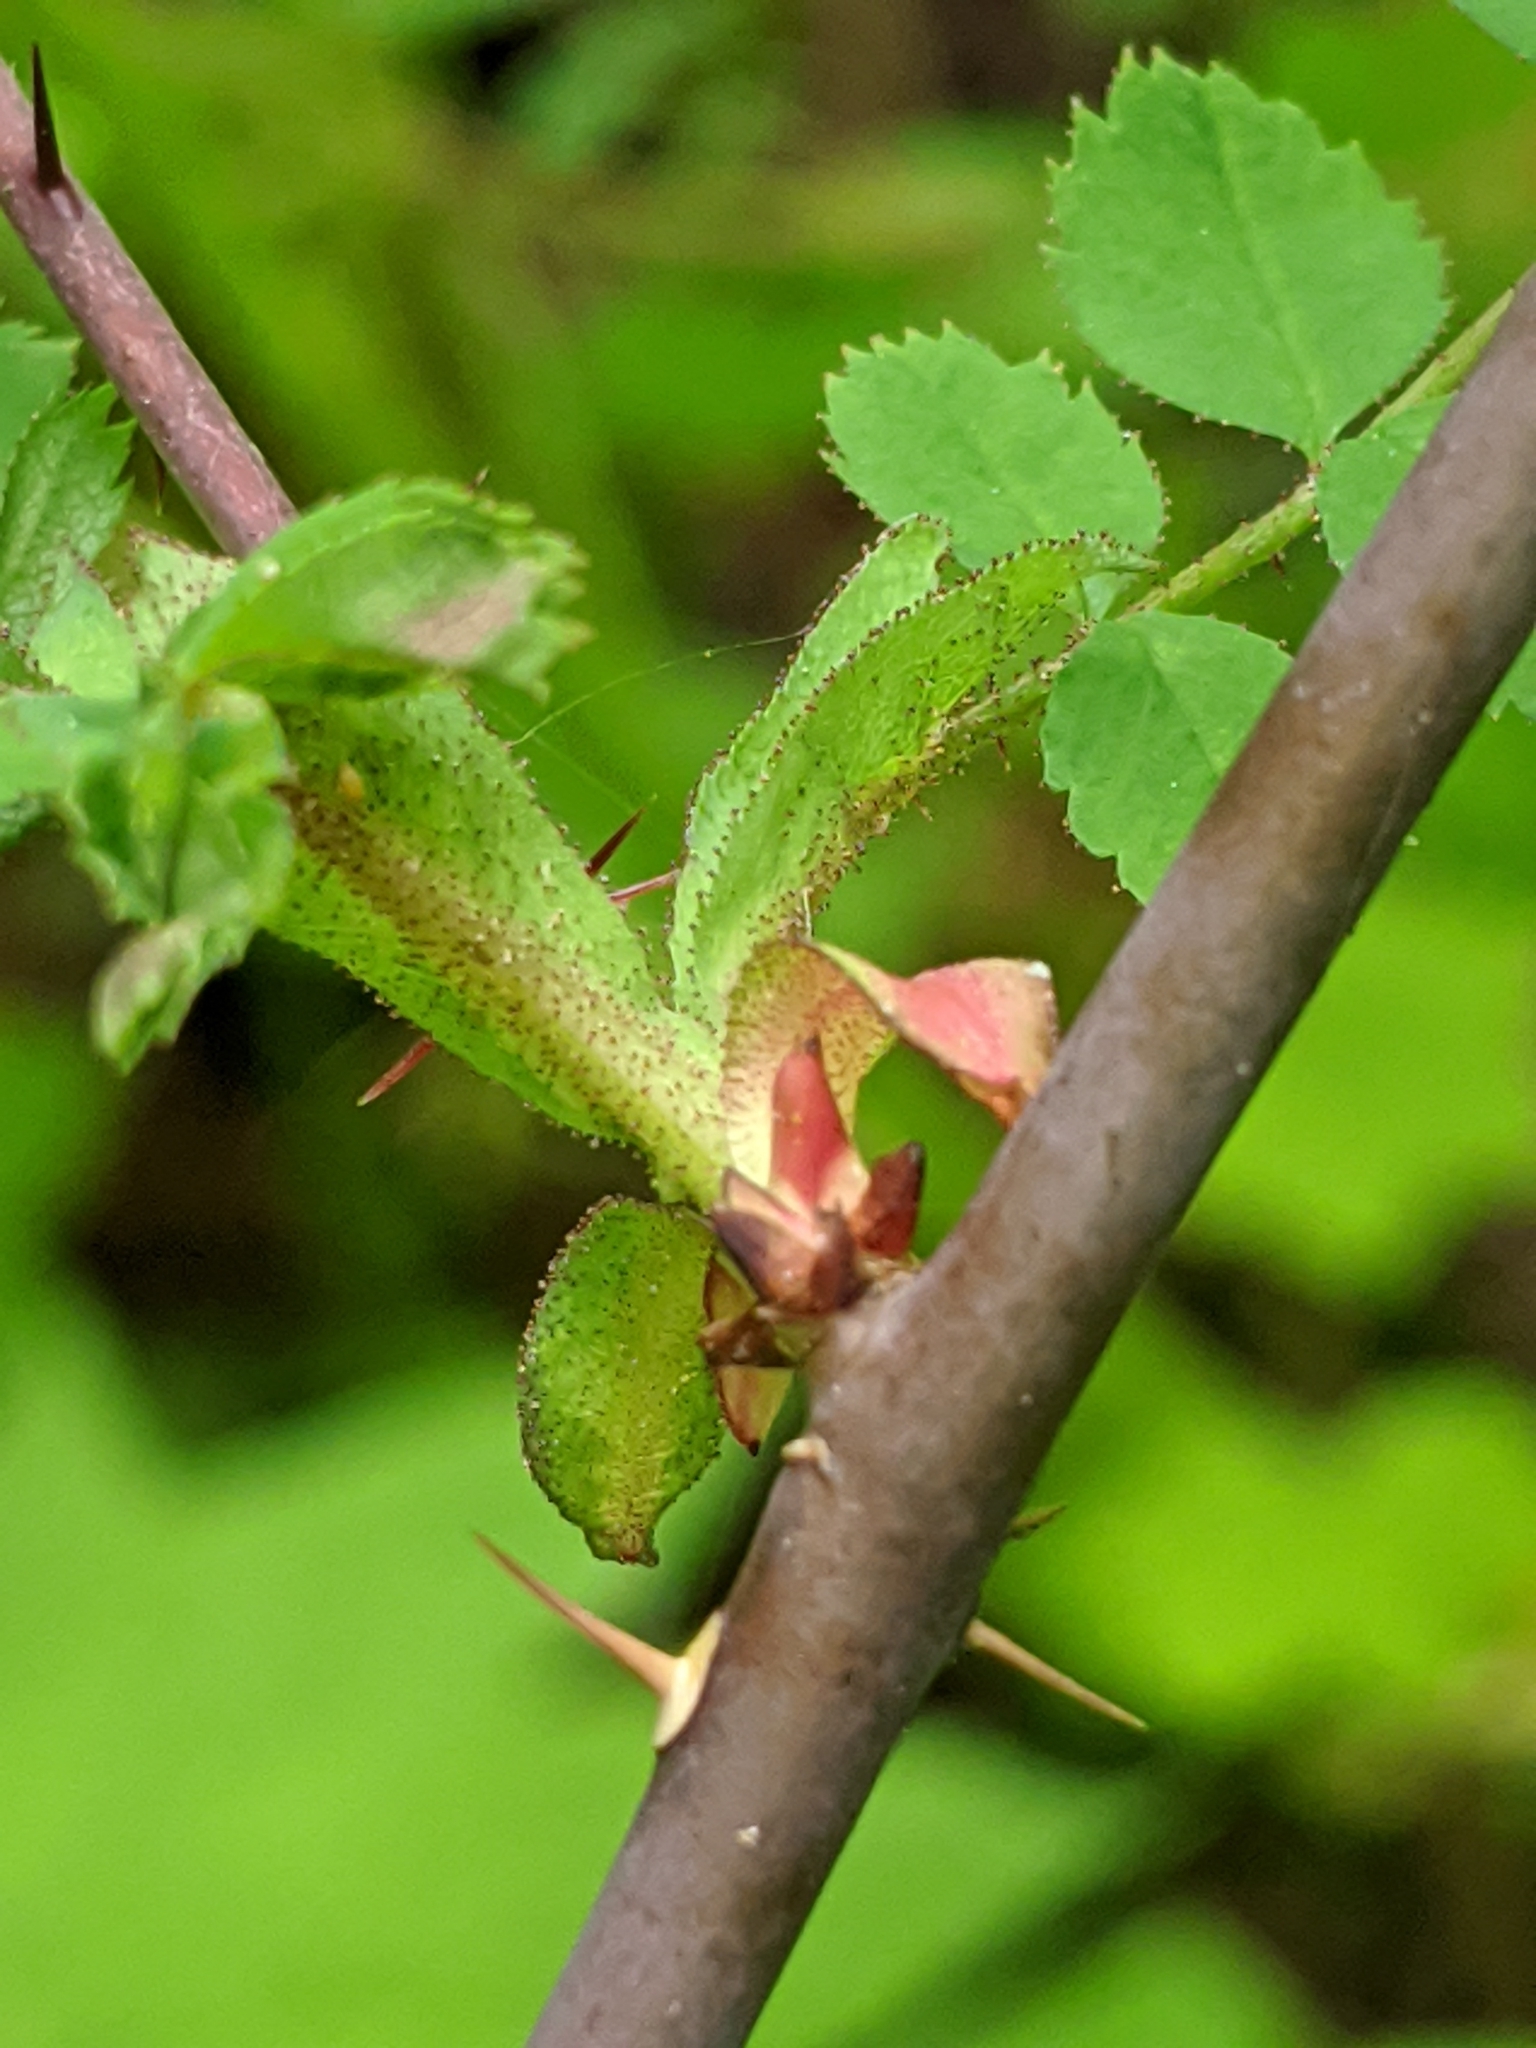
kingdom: Plantae
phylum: Tracheophyta
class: Magnoliopsida
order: Rosales
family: Rosaceae
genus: Rosa
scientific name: Rosa gymnocarpa
